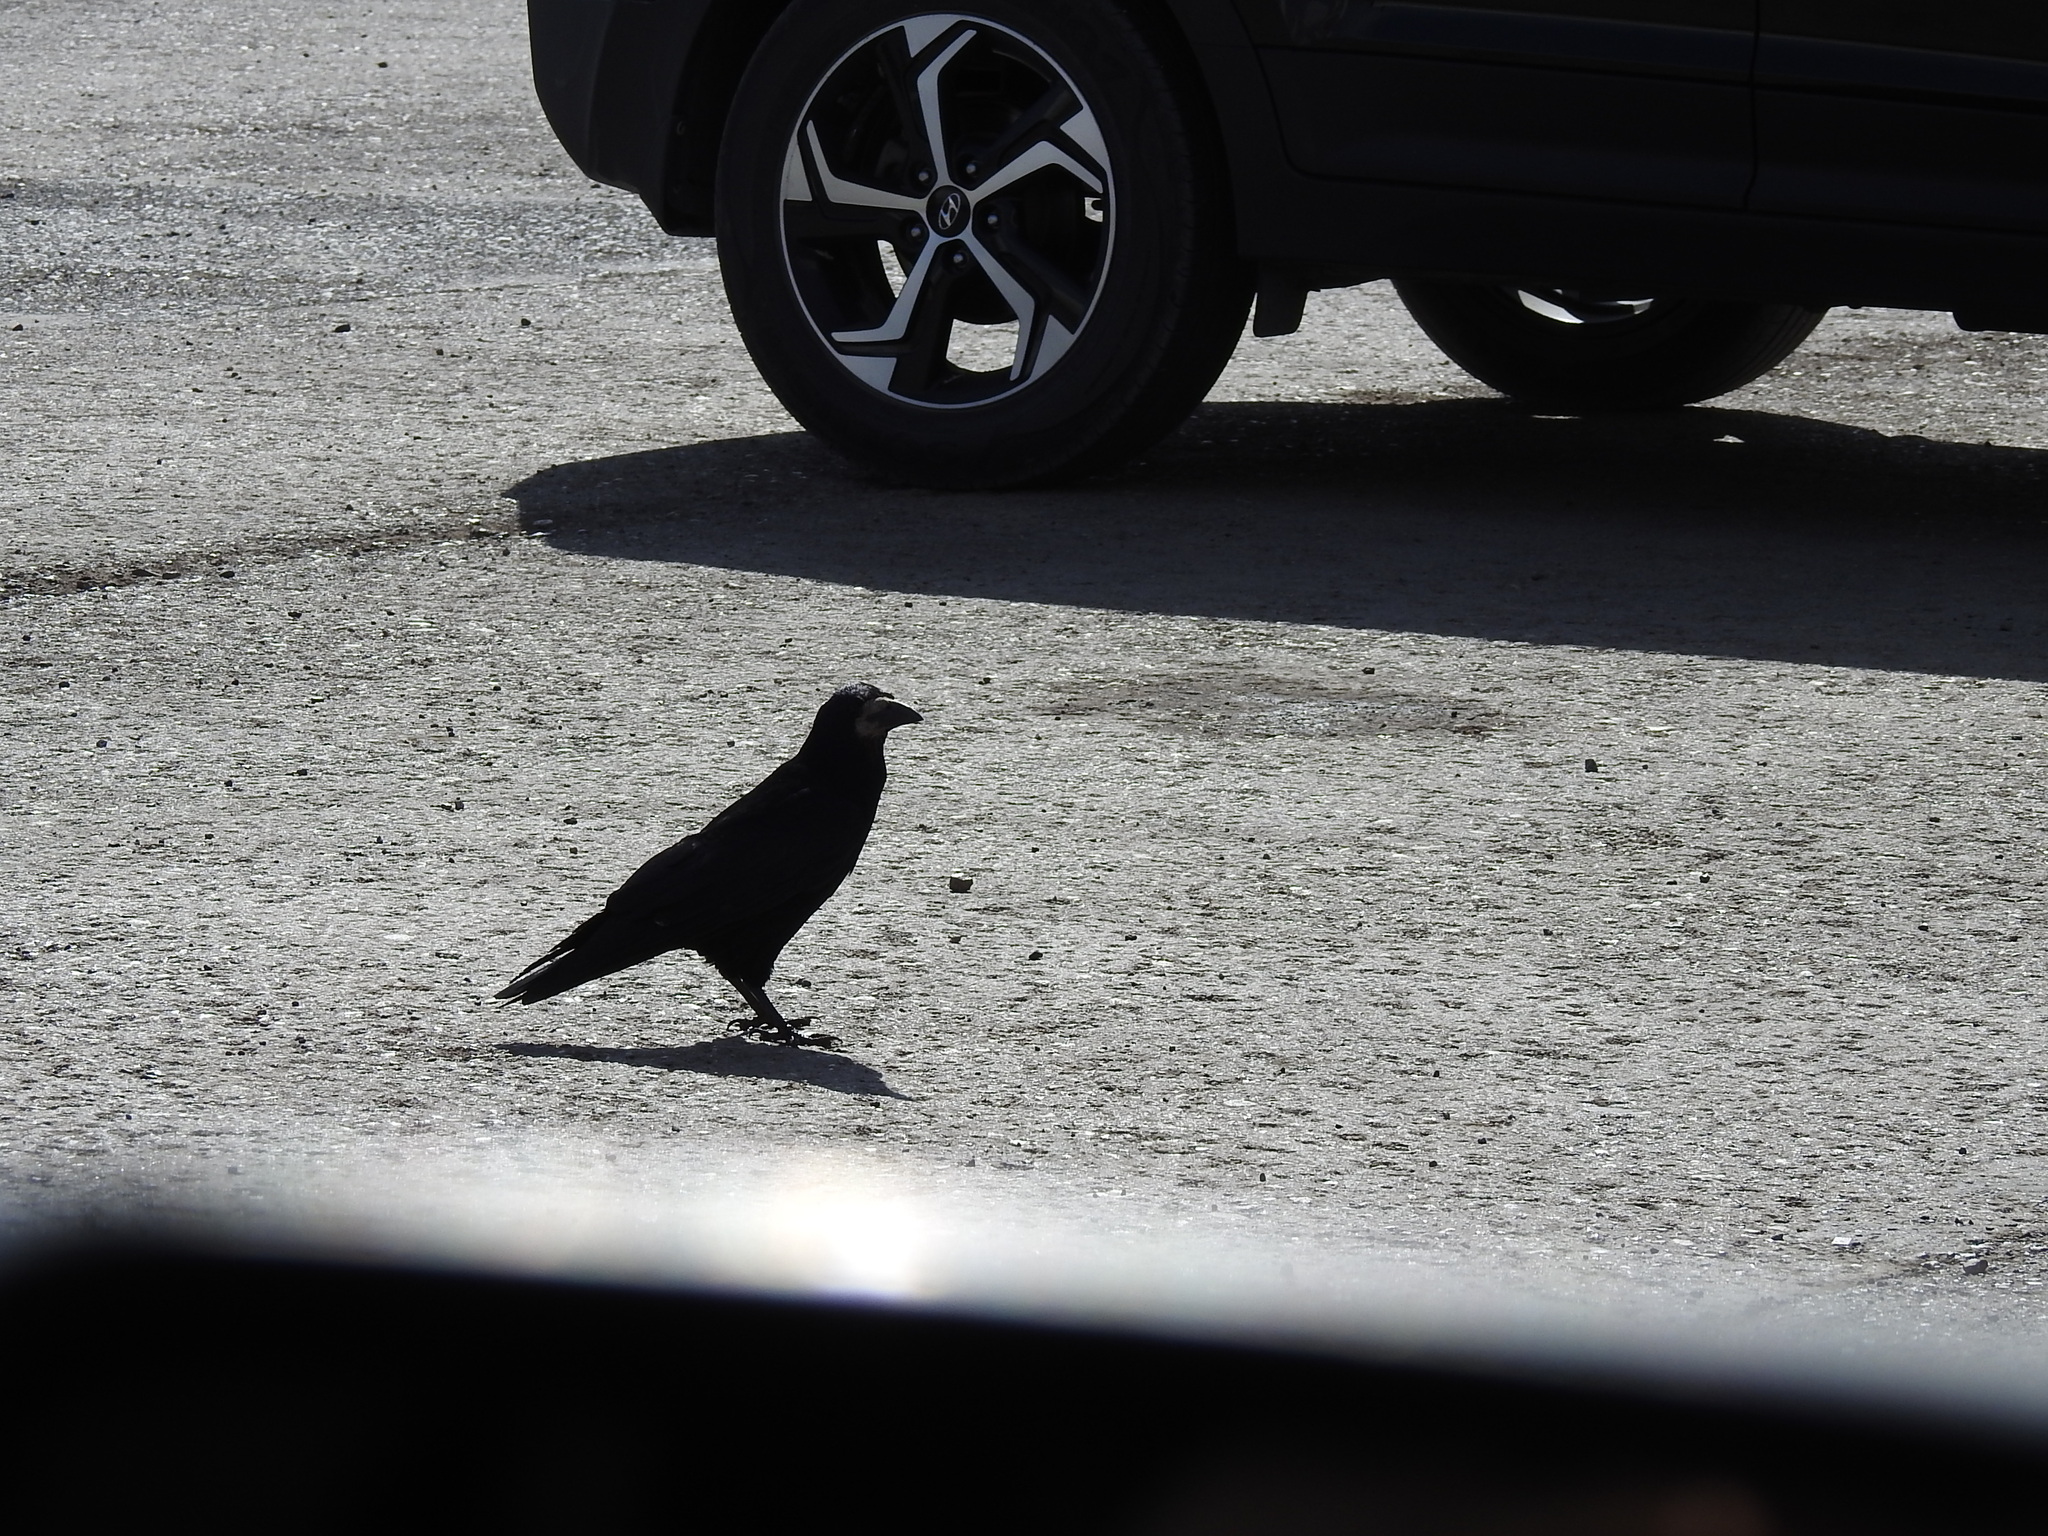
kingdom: Animalia
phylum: Chordata
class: Aves
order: Passeriformes
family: Corvidae
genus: Corvus
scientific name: Corvus frugilegus
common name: Rook
